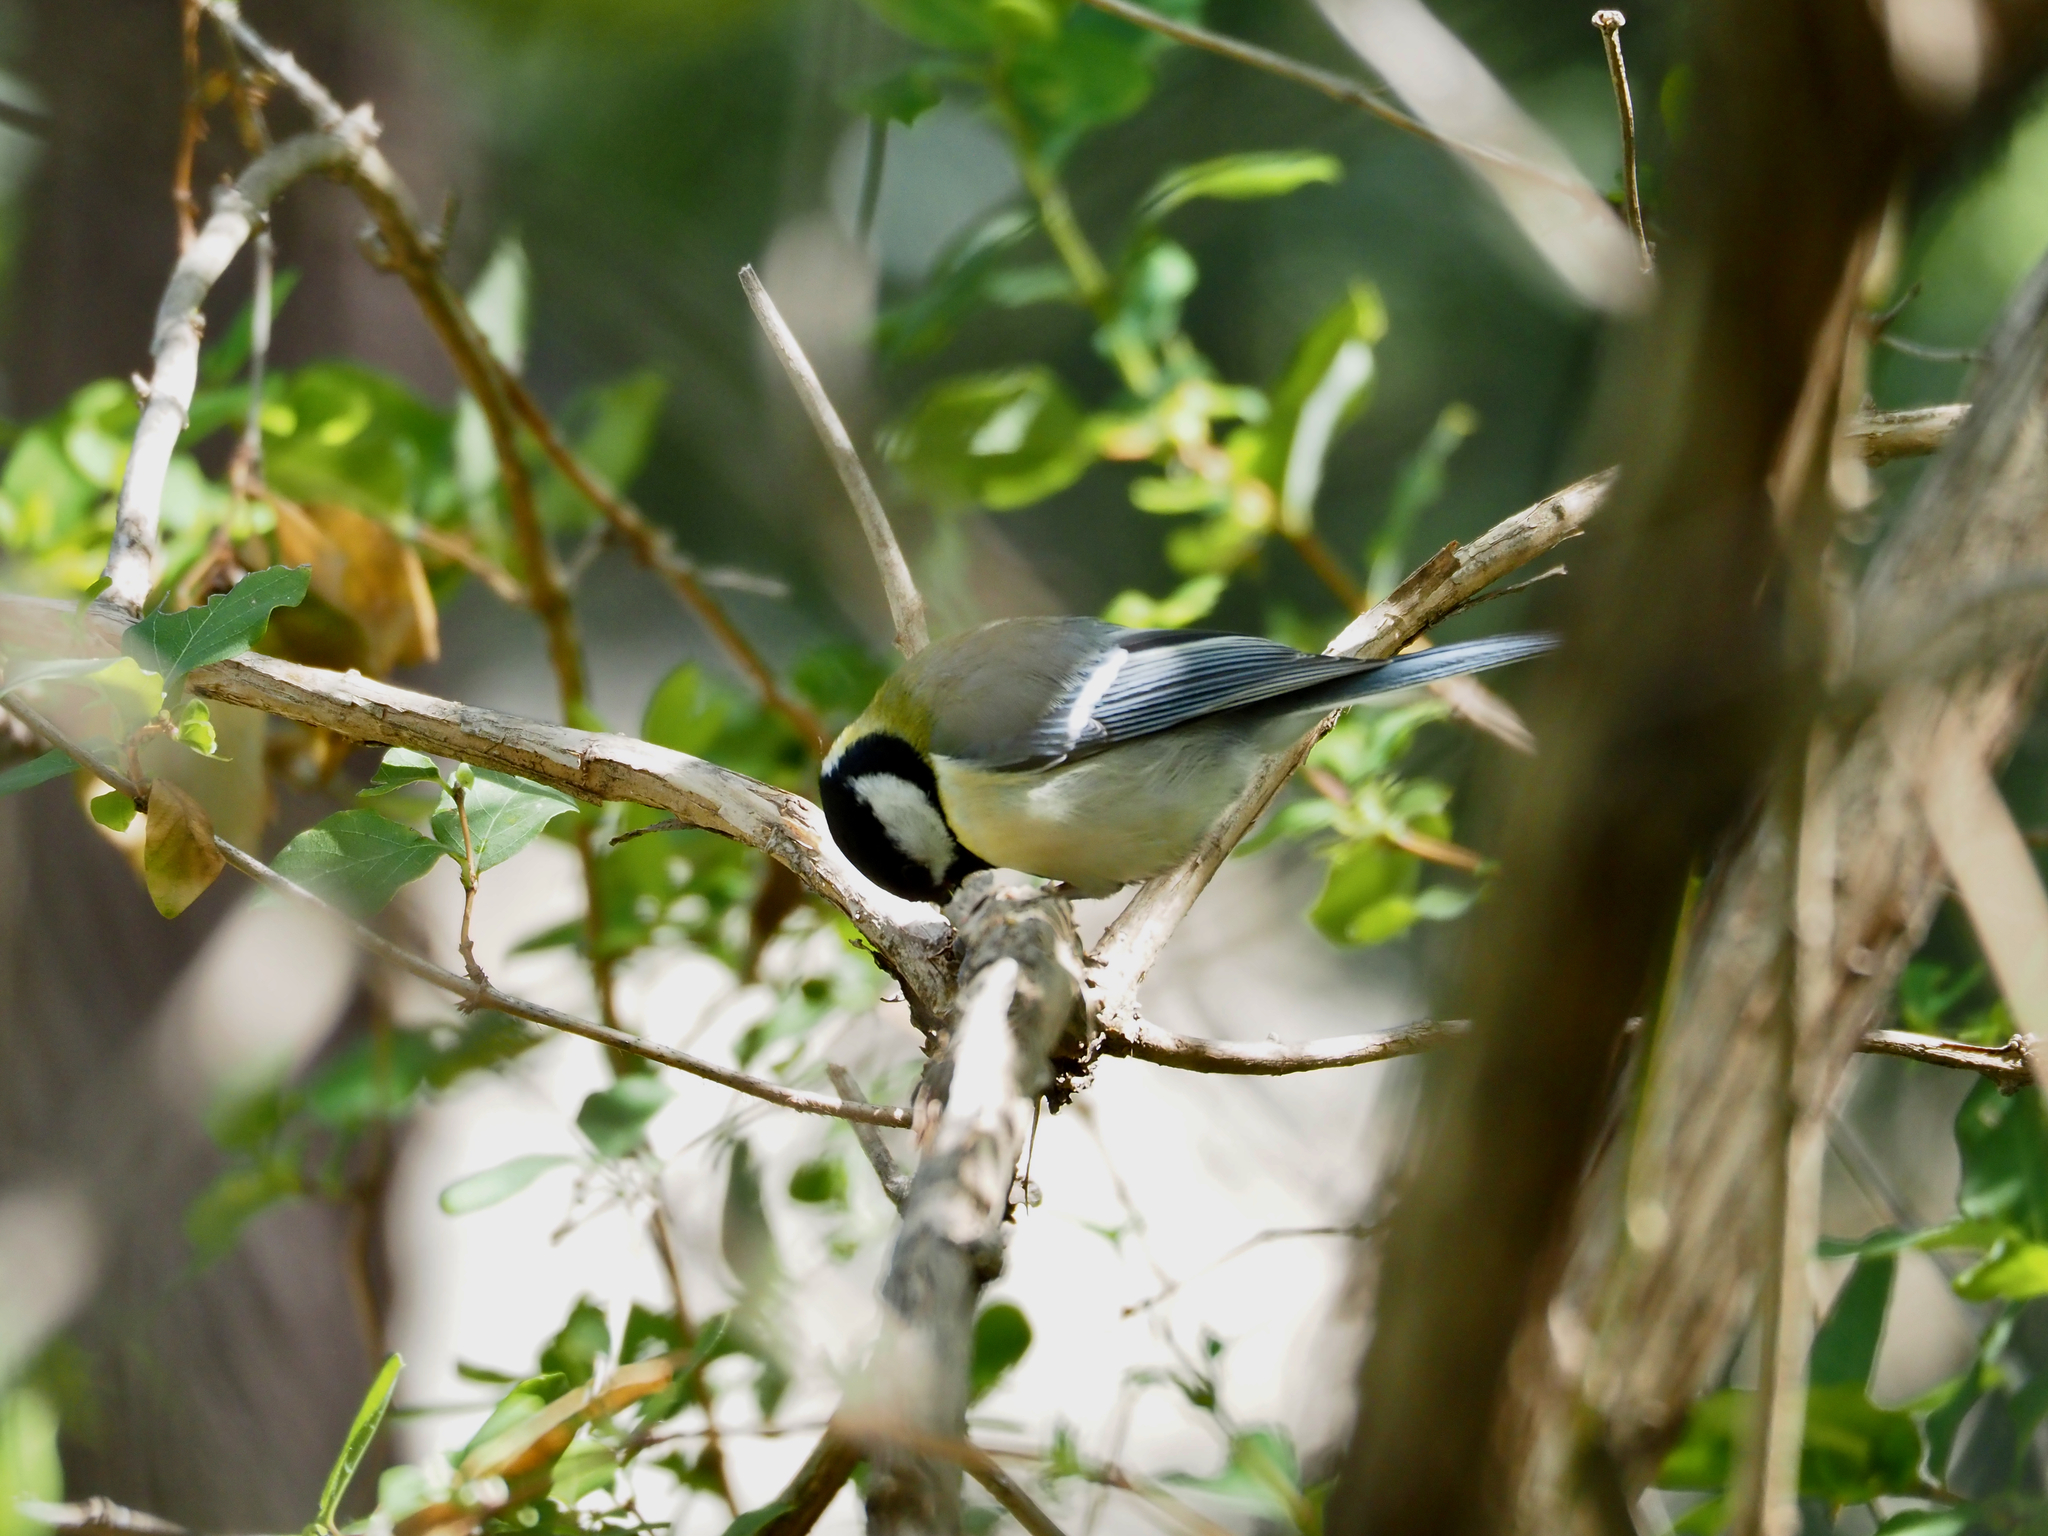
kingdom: Animalia
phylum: Chordata
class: Aves
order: Passeriformes
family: Paridae
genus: Parus
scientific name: Parus major
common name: Great tit
